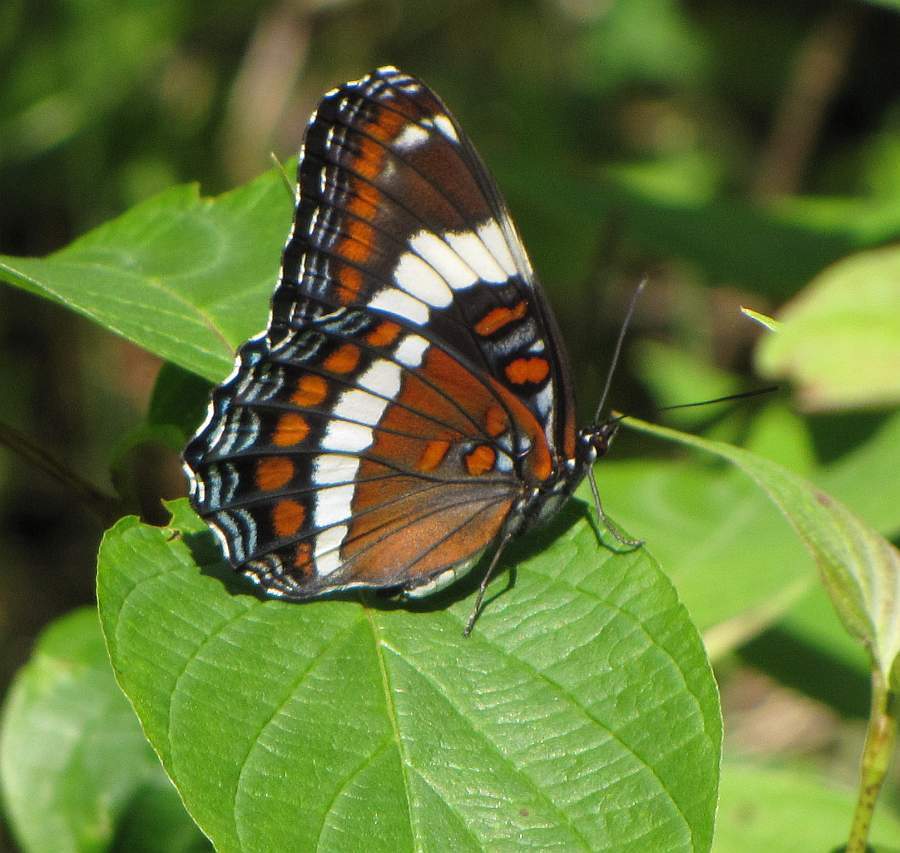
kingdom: Animalia
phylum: Arthropoda
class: Insecta
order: Lepidoptera
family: Nymphalidae
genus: Limenitis
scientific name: Limenitis arthemis
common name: Red-spotted admiral
